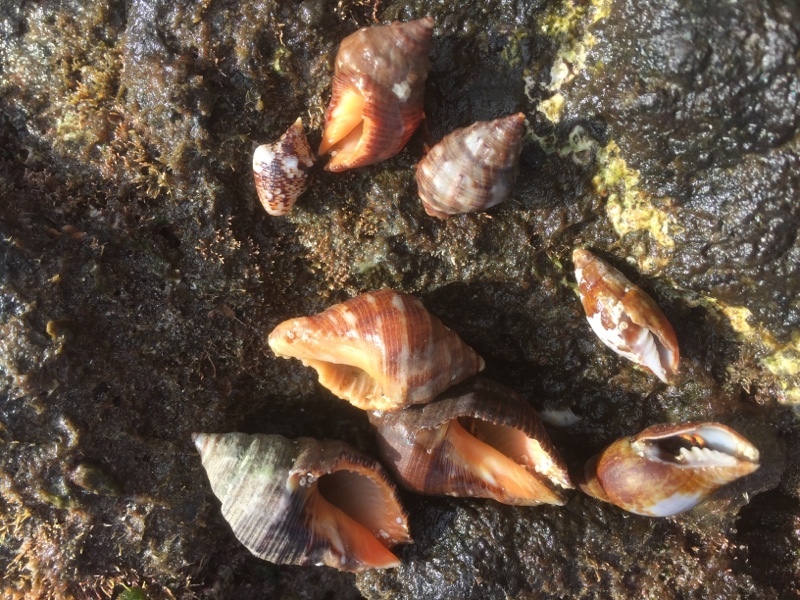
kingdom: Animalia
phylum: Mollusca
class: Gastropoda
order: Neogastropoda
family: Muricidae
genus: Stramonita
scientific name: Stramonita haemastoma
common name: Florida dog winkle
